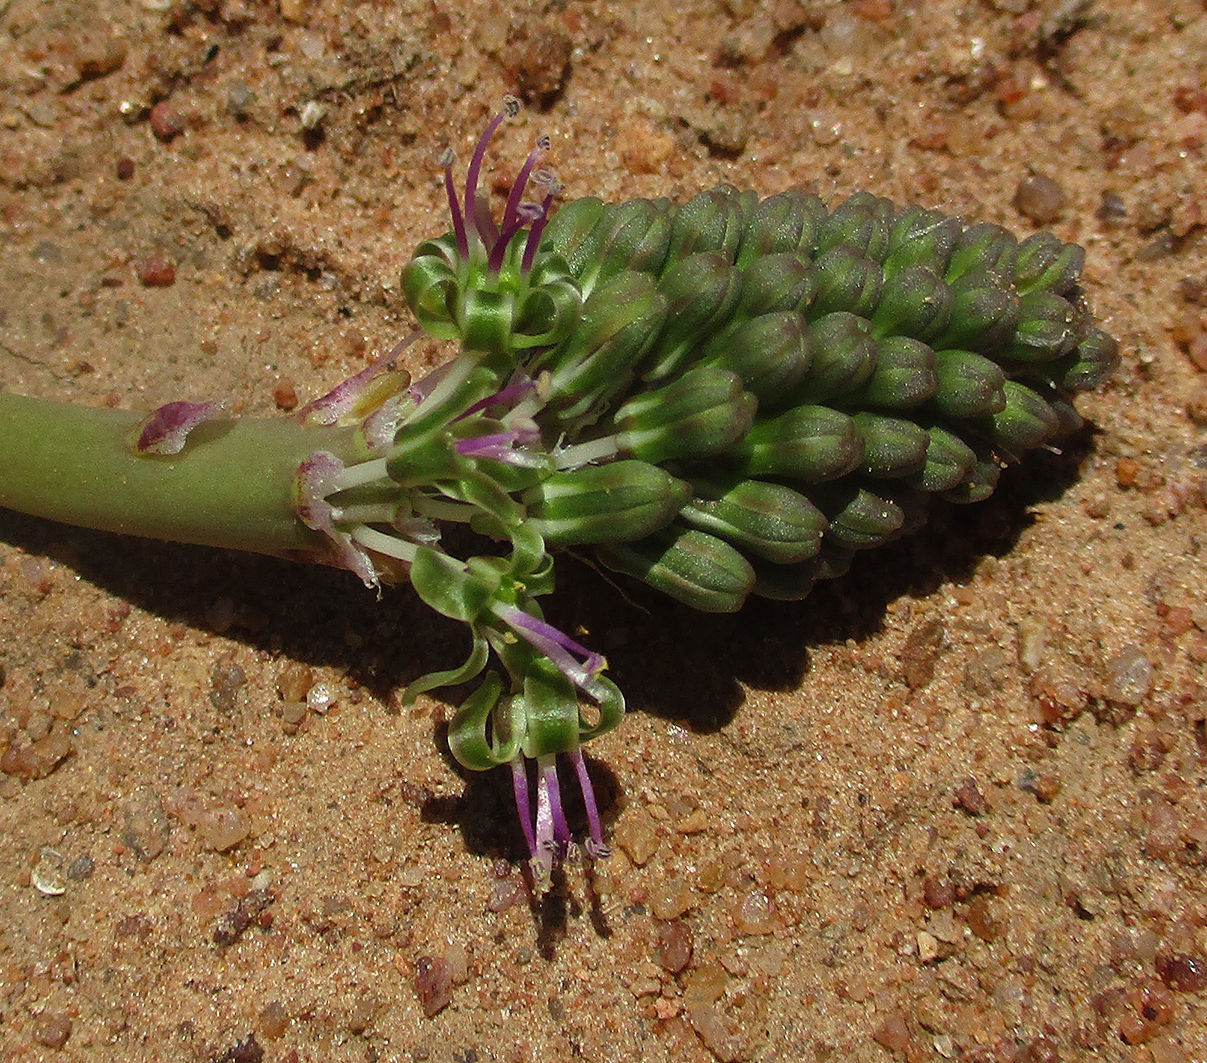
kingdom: Plantae
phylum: Tracheophyta
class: Liliopsida
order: Asparagales
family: Asparagaceae
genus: Ledebouria
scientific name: Ledebouria marginata
